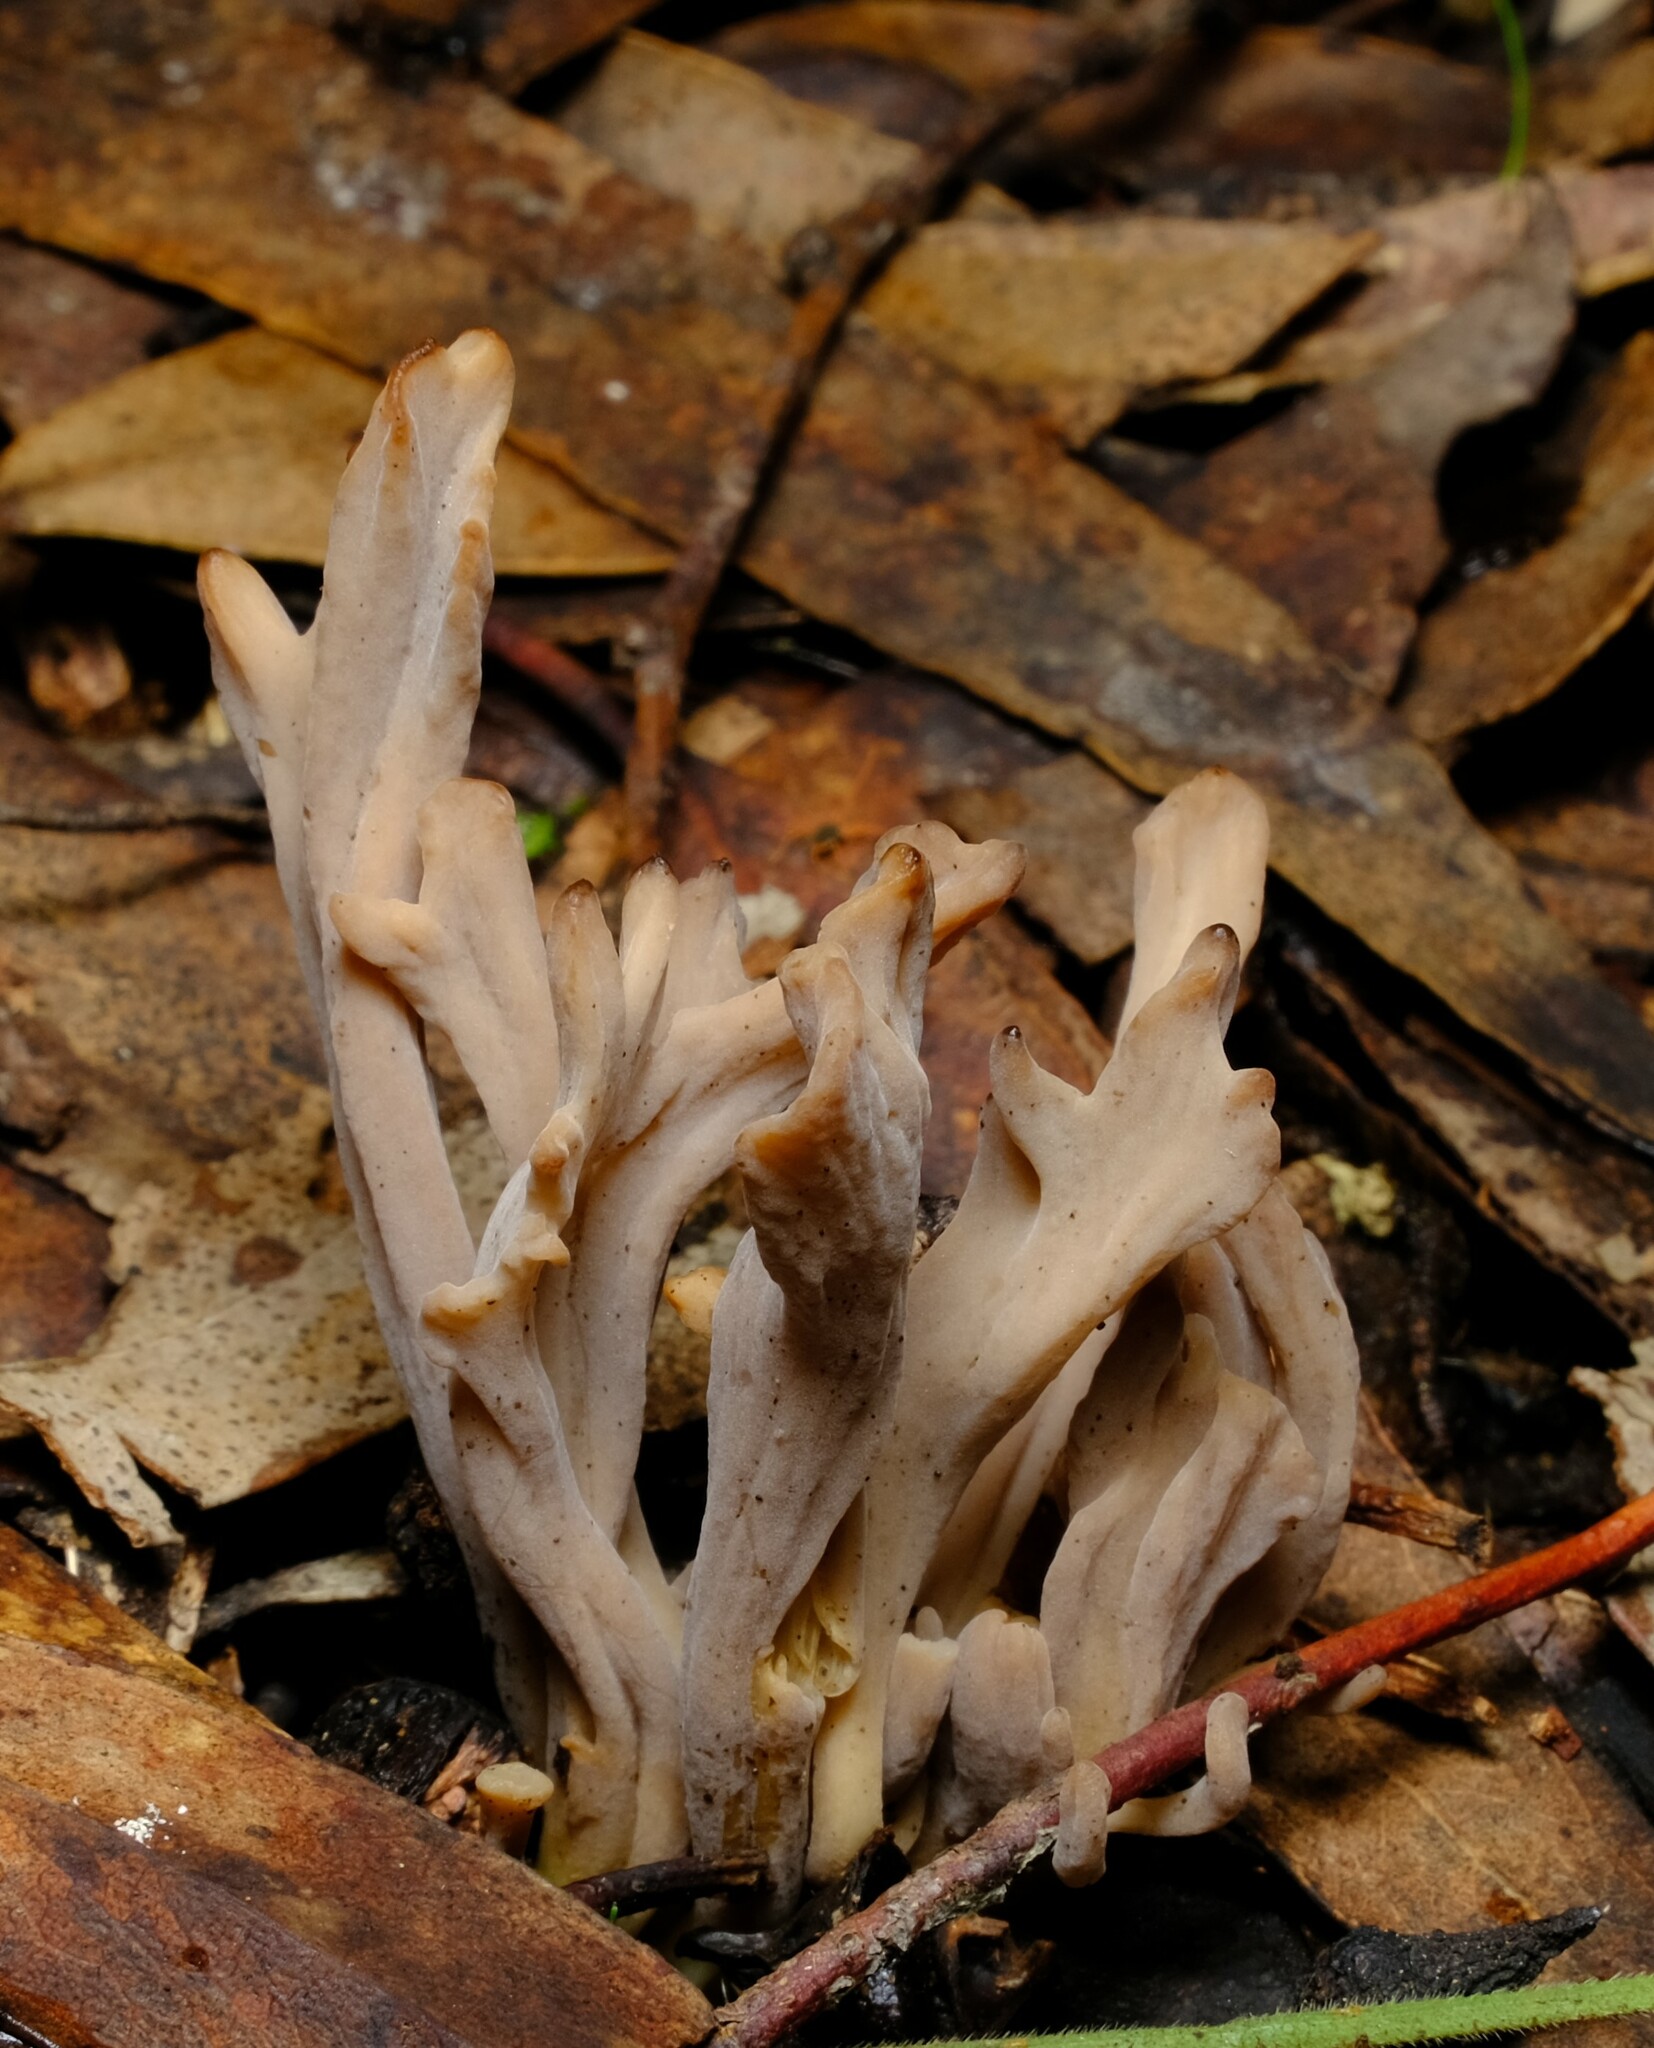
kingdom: Fungi
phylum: Basidiomycota
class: Agaricomycetes
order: Cantharellales
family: Hydnaceae
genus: Clavulina
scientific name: Clavulina cinerea
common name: Grey coral
